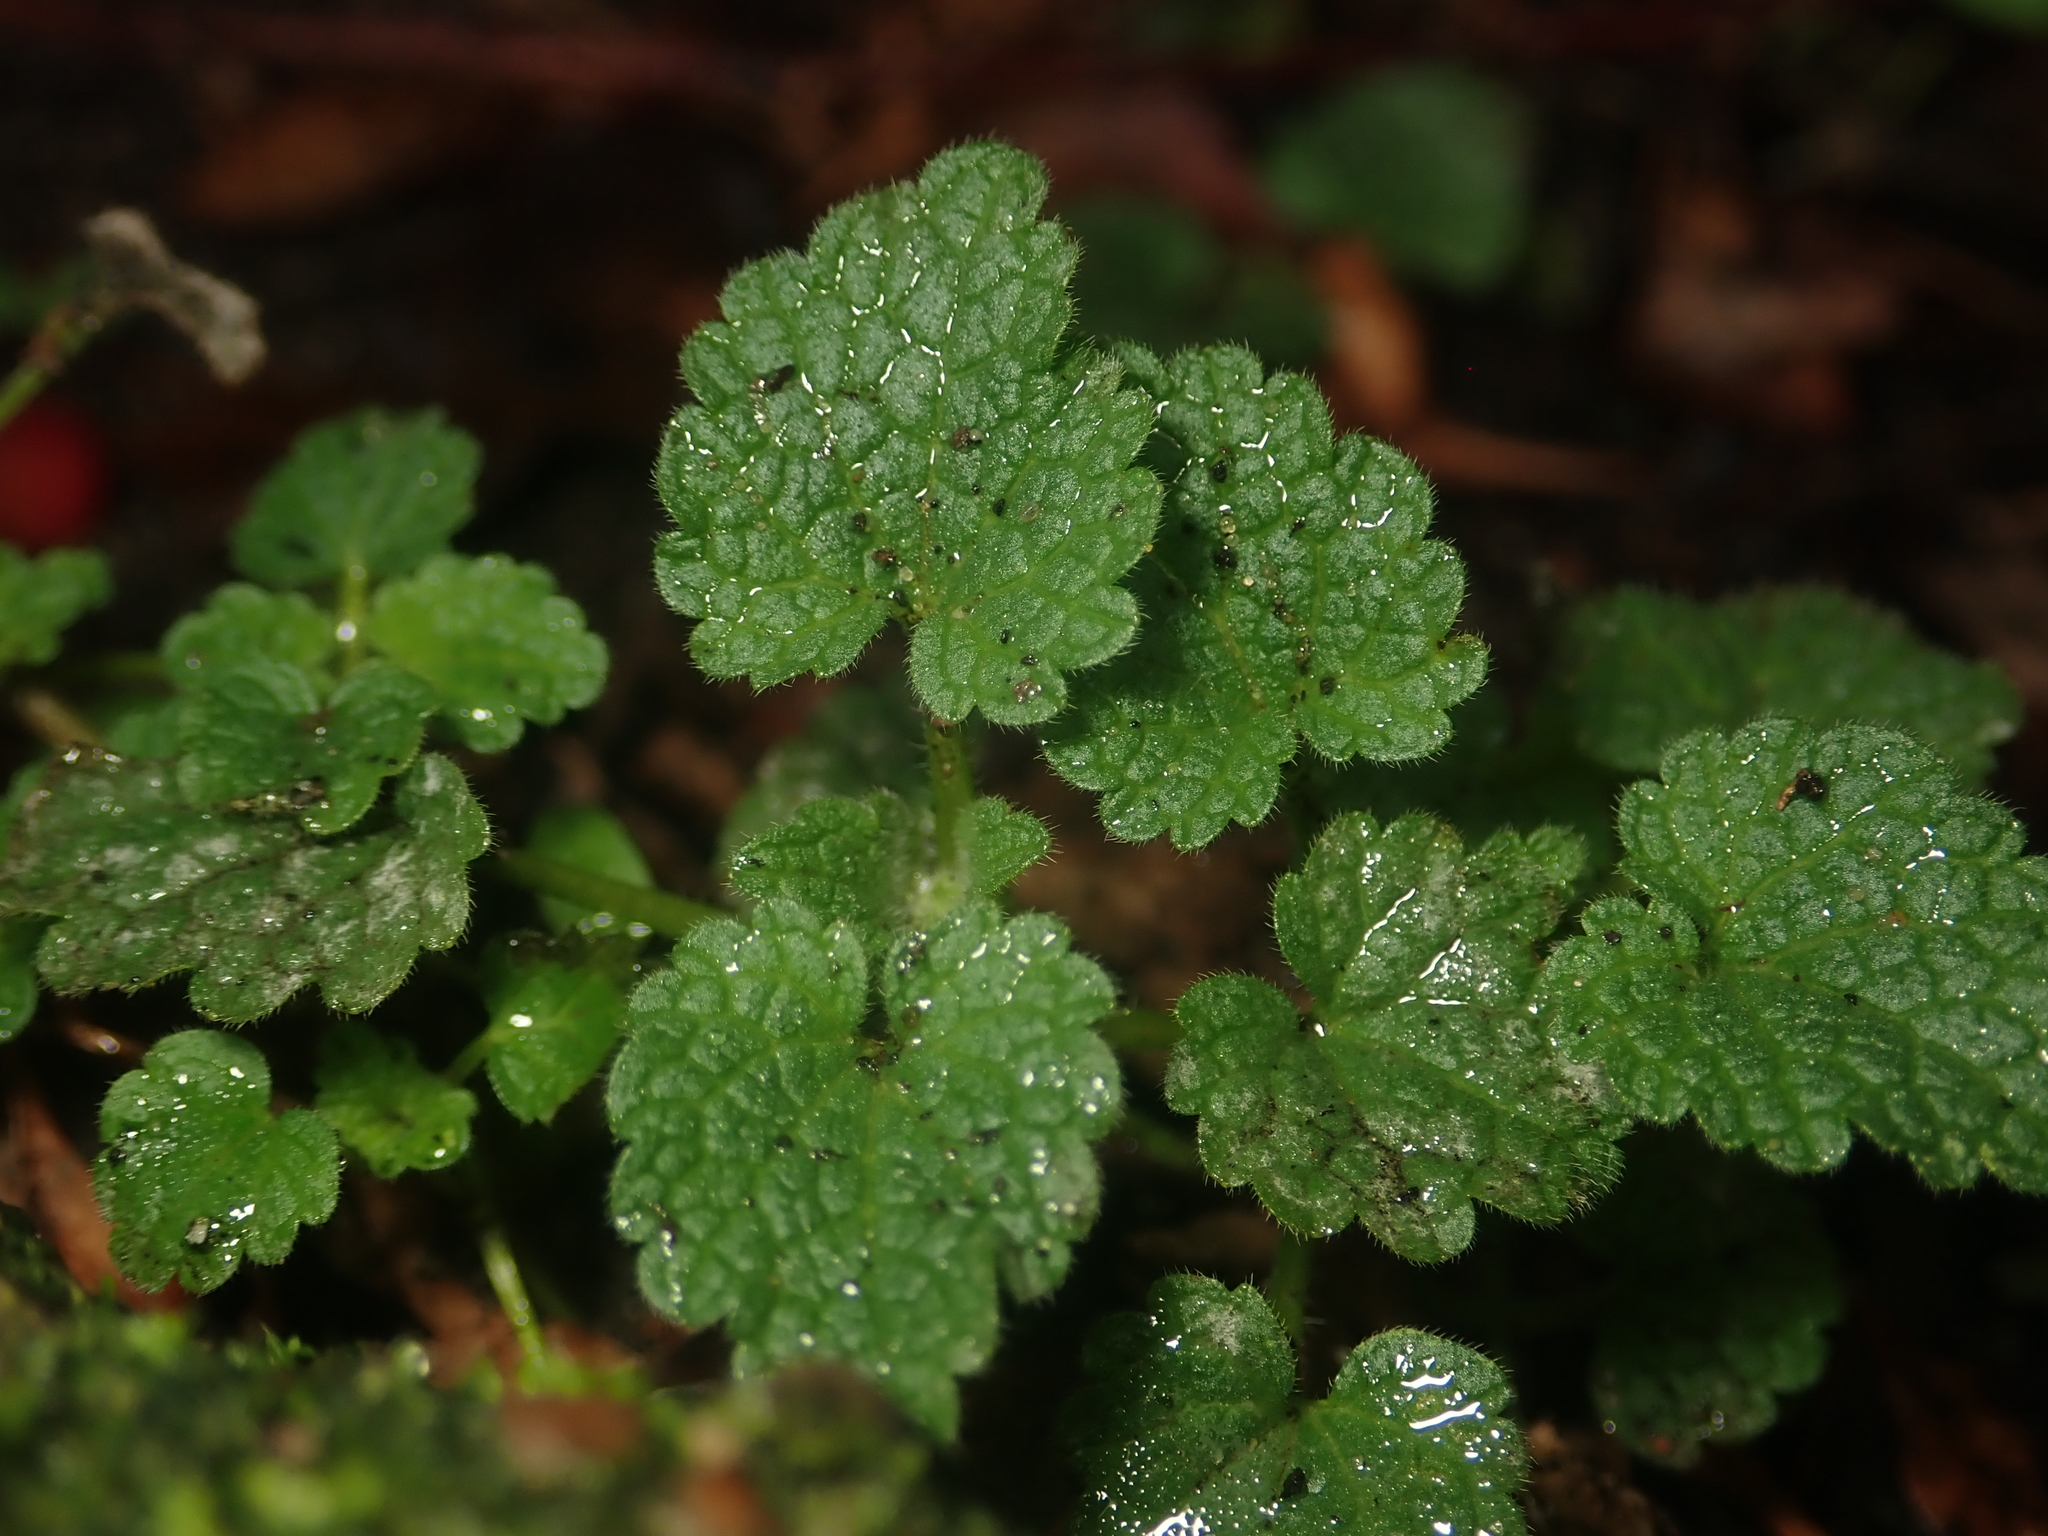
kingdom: Plantae
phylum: Tracheophyta
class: Magnoliopsida
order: Lamiales
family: Lamiaceae
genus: Lamium
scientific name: Lamium purpureum
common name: Red dead-nettle
